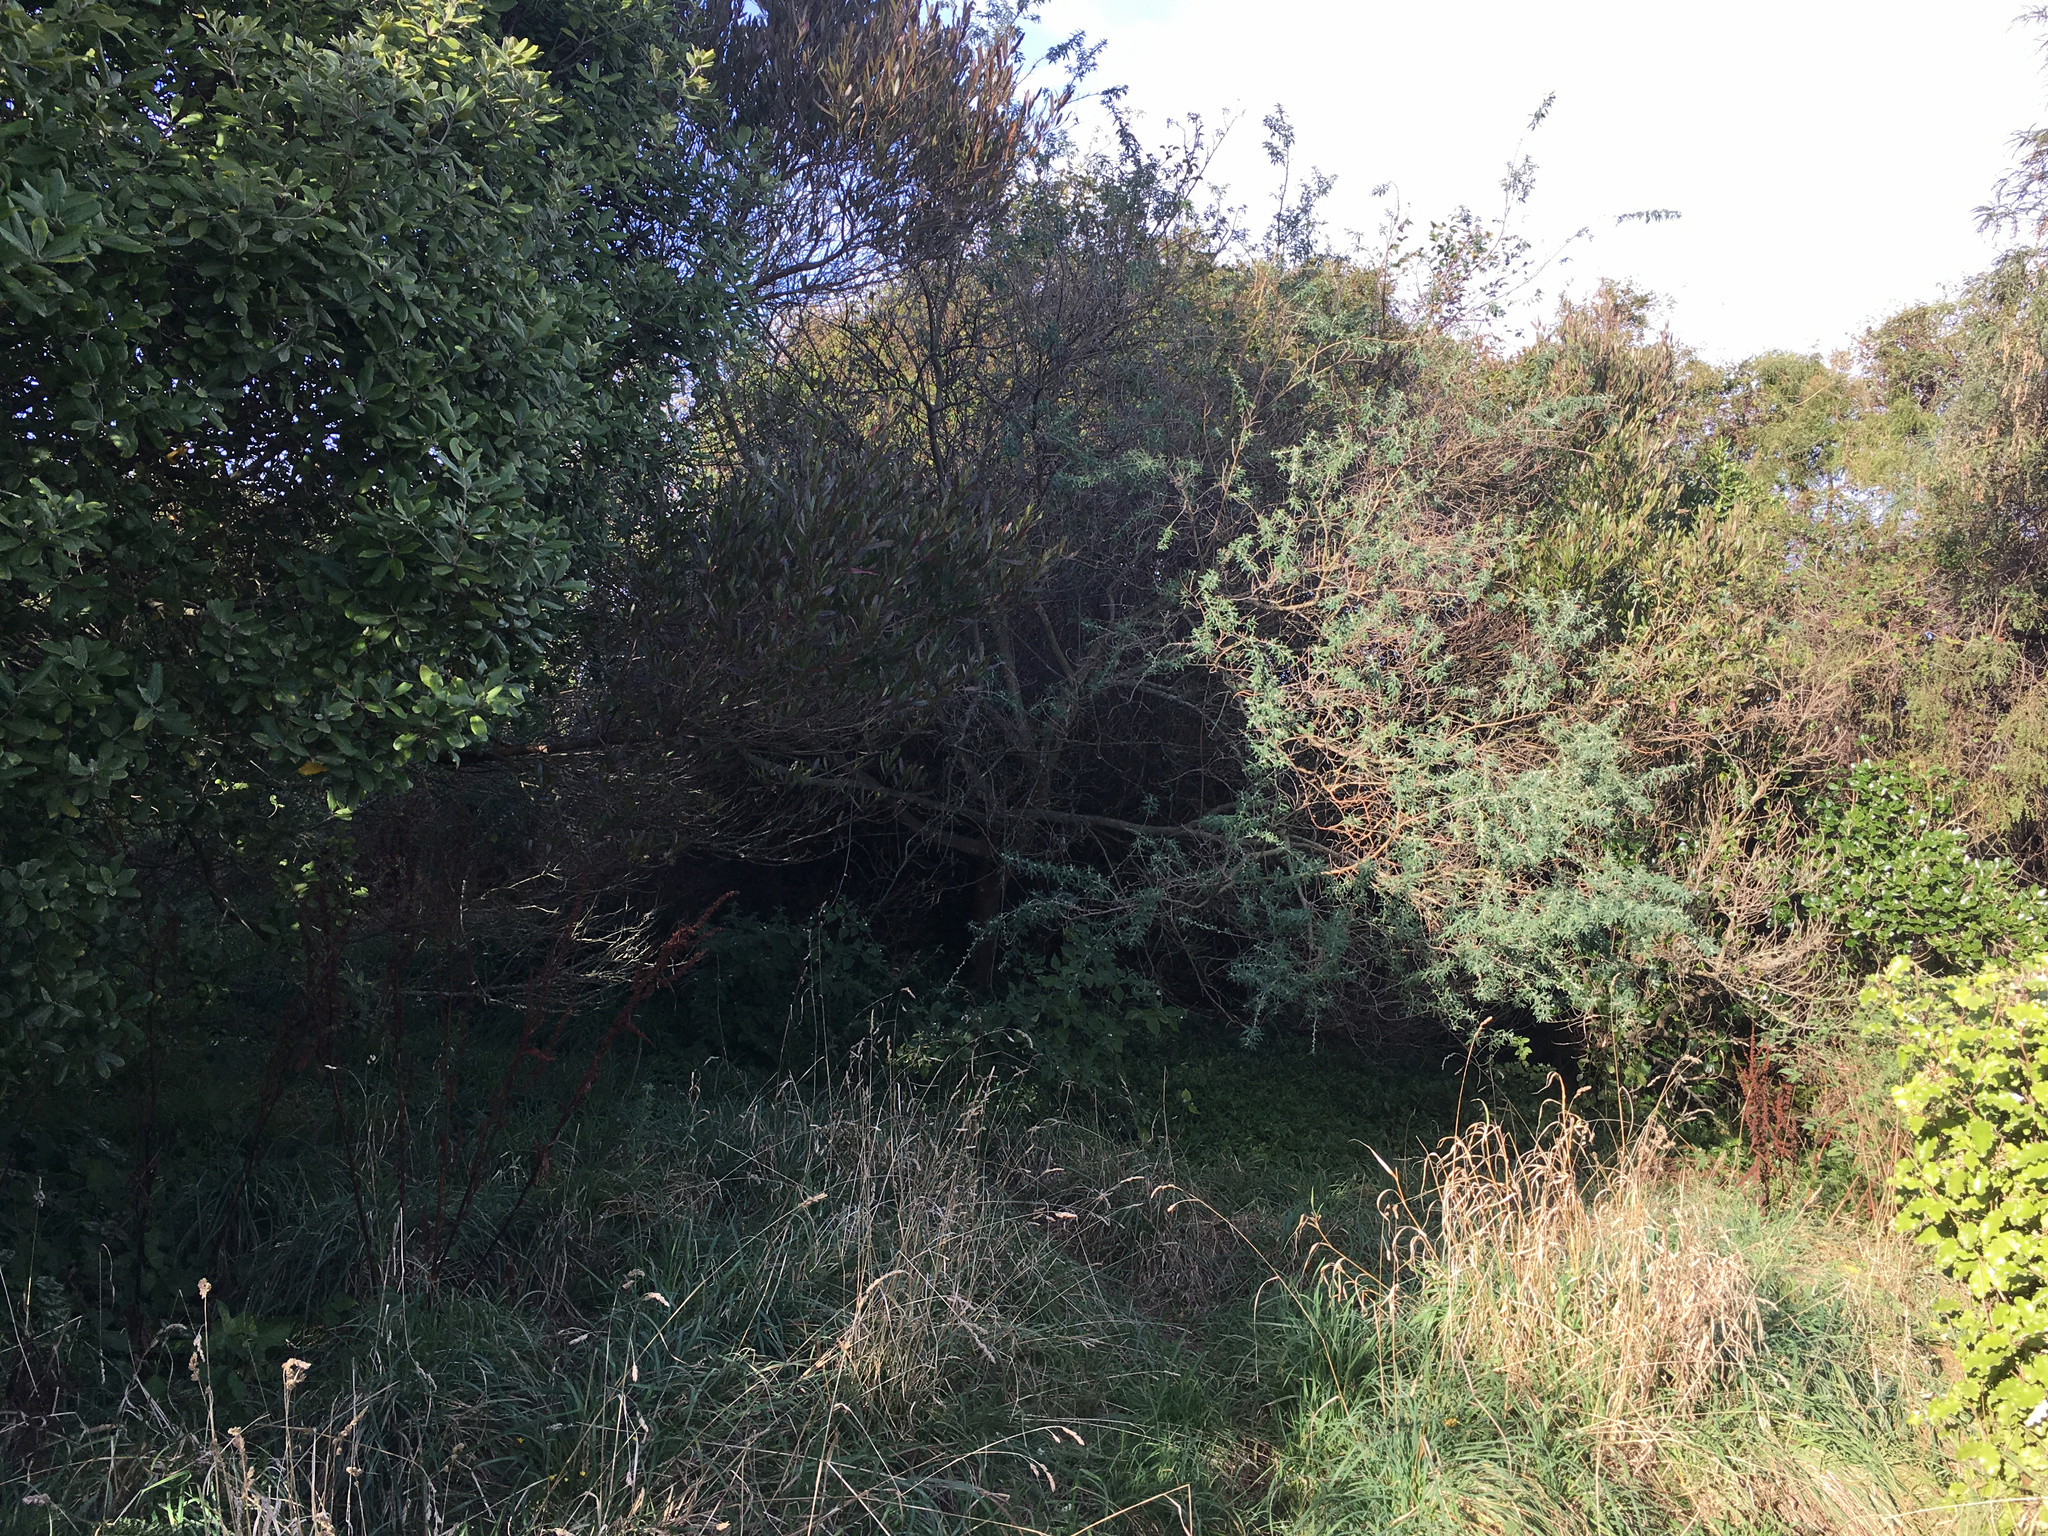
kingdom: Plantae
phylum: Tracheophyta
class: Magnoliopsida
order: Fabales
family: Fabaceae
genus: Chamaecytisus
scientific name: Chamaecytisus prolifer
